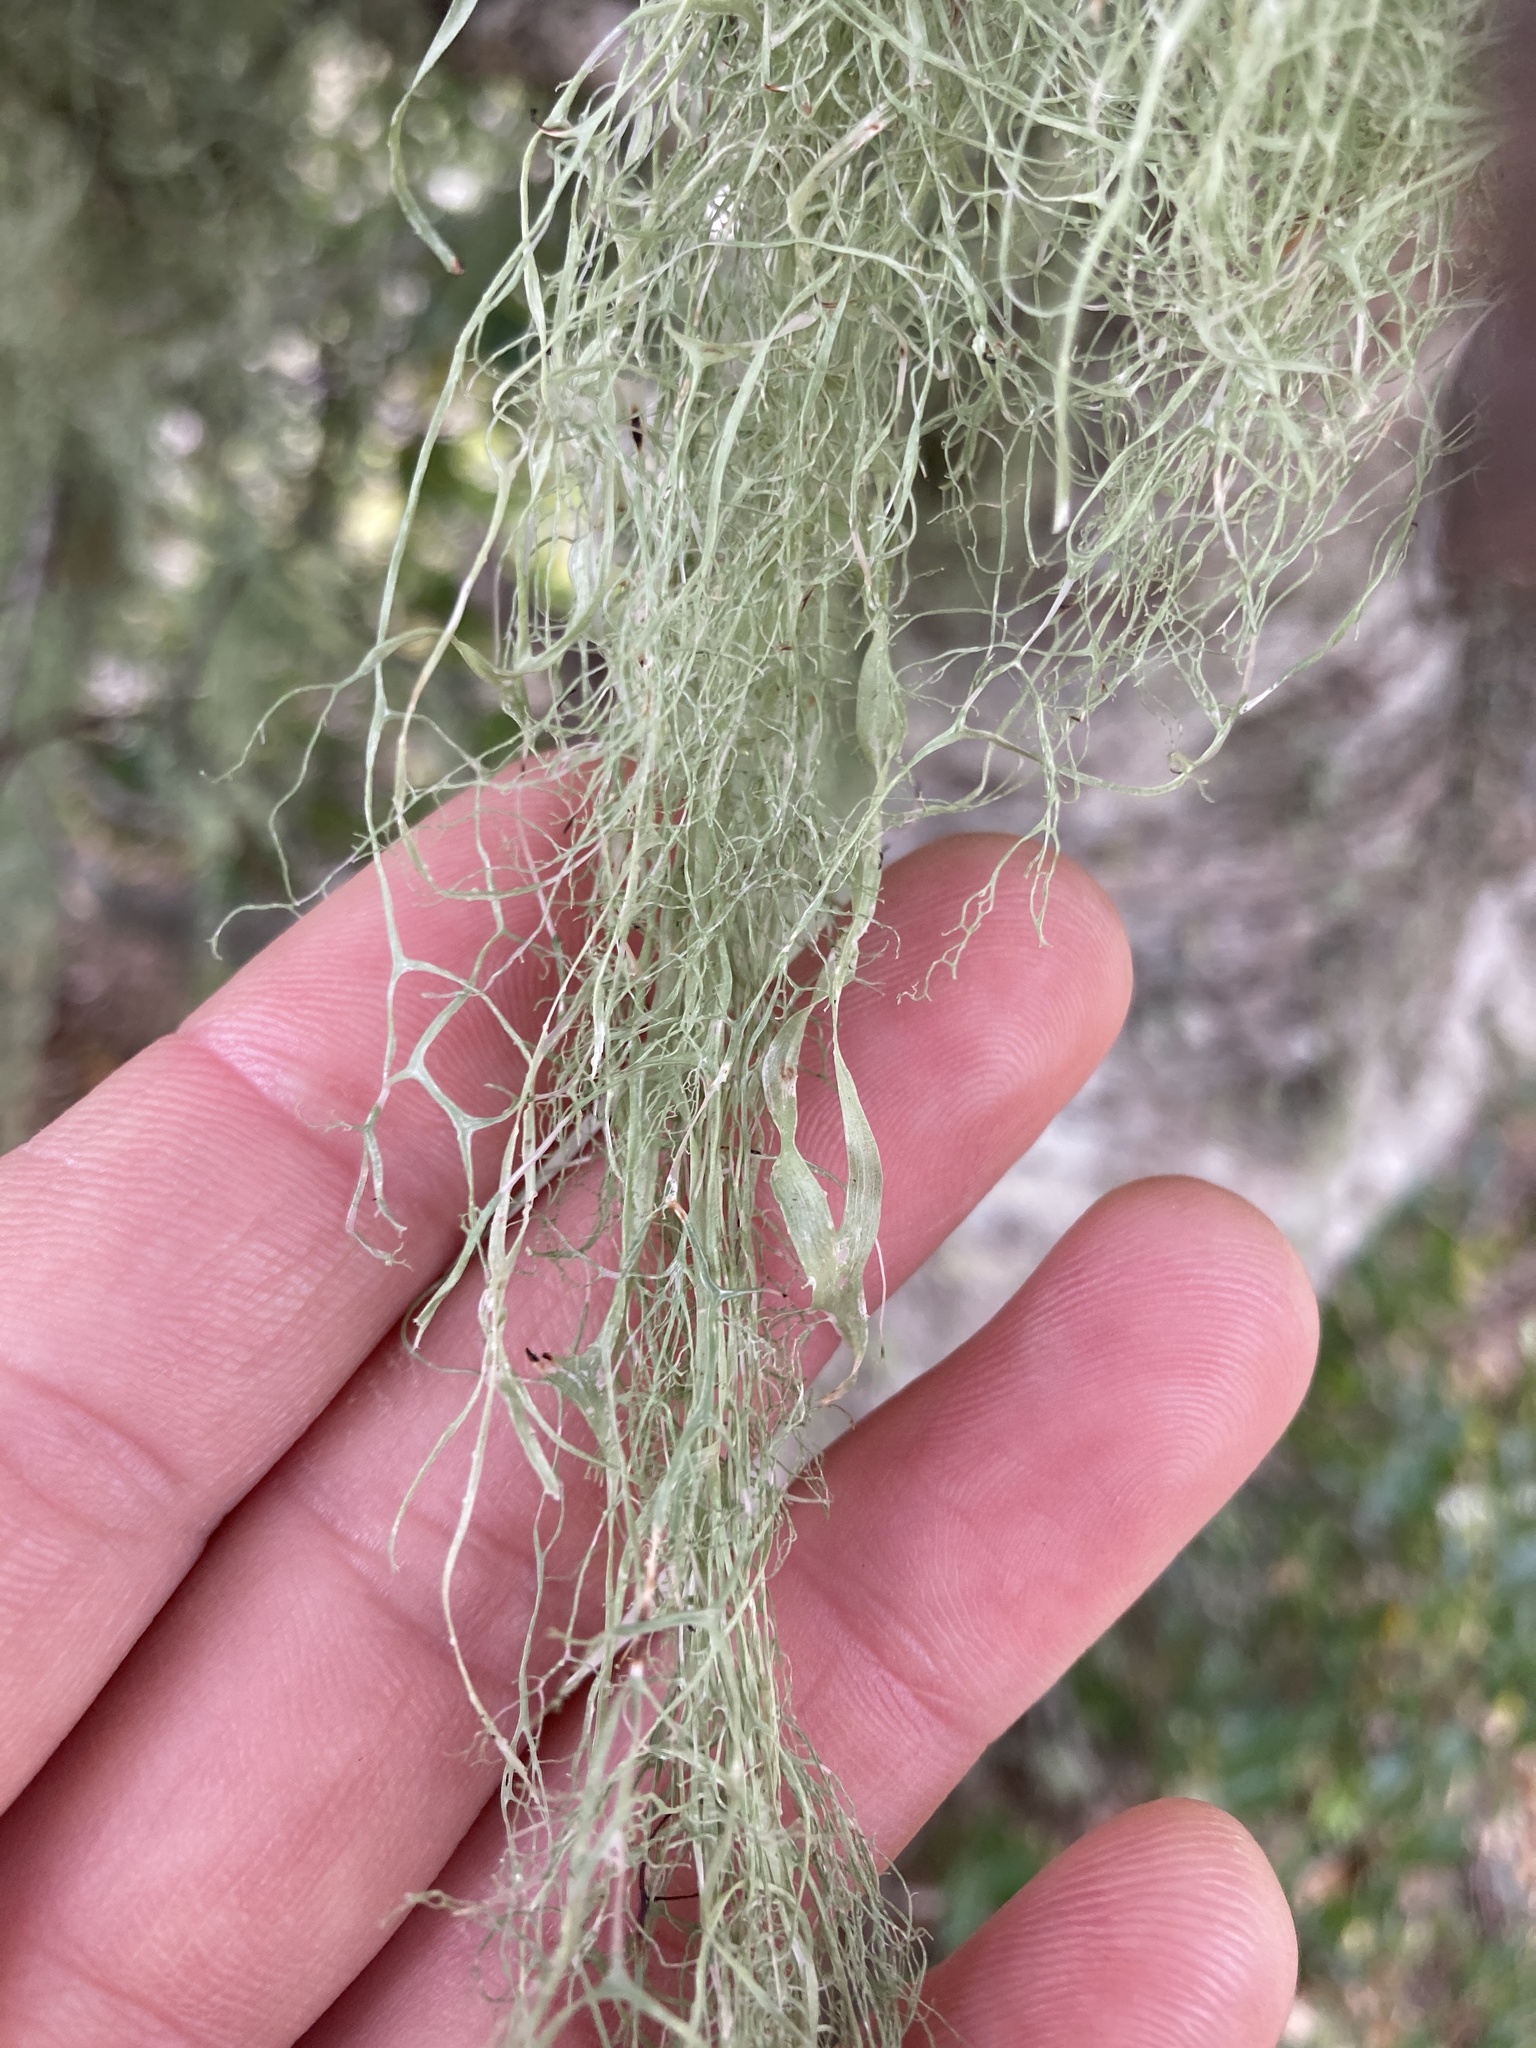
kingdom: Fungi
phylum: Ascomycota
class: Lecanoromycetes
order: Lecanorales
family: Ramalinaceae
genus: Ramalina
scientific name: Ramalina menziesii
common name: Lace lichen
